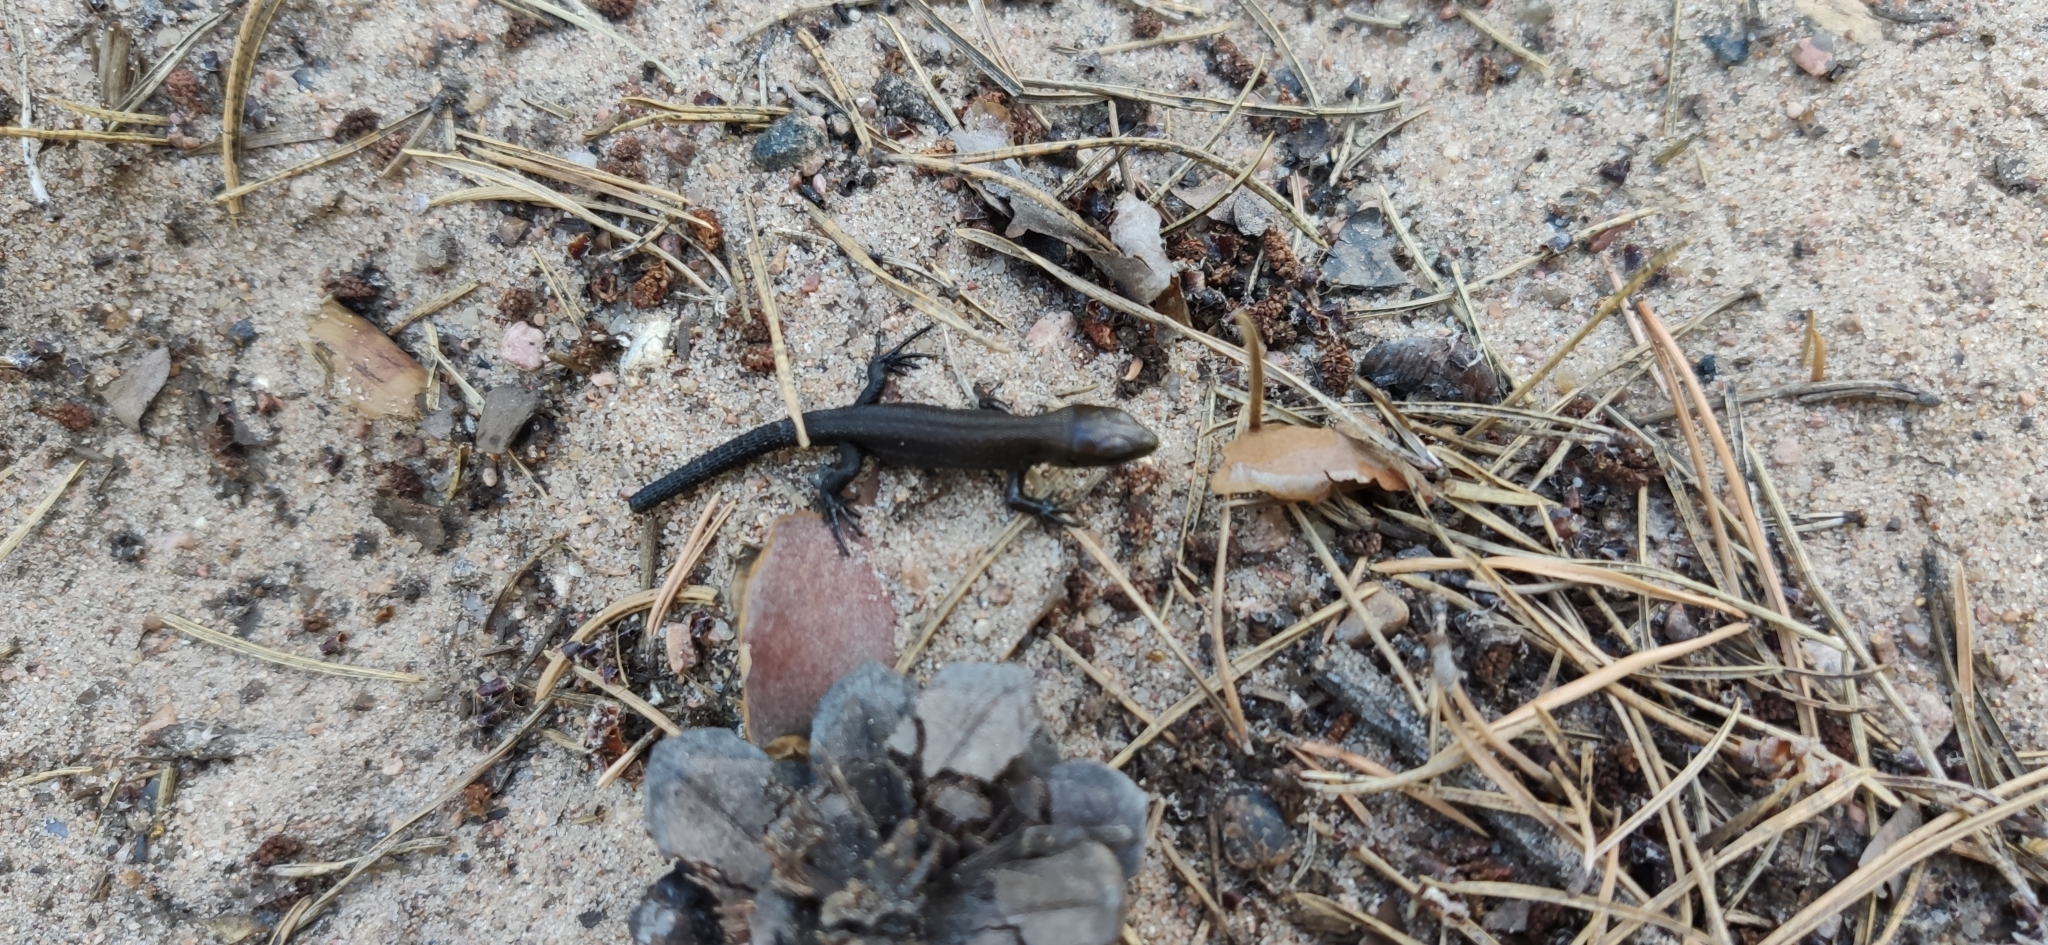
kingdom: Animalia
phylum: Chordata
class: Squamata
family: Lacertidae
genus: Zootoca
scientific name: Zootoca vivipara
